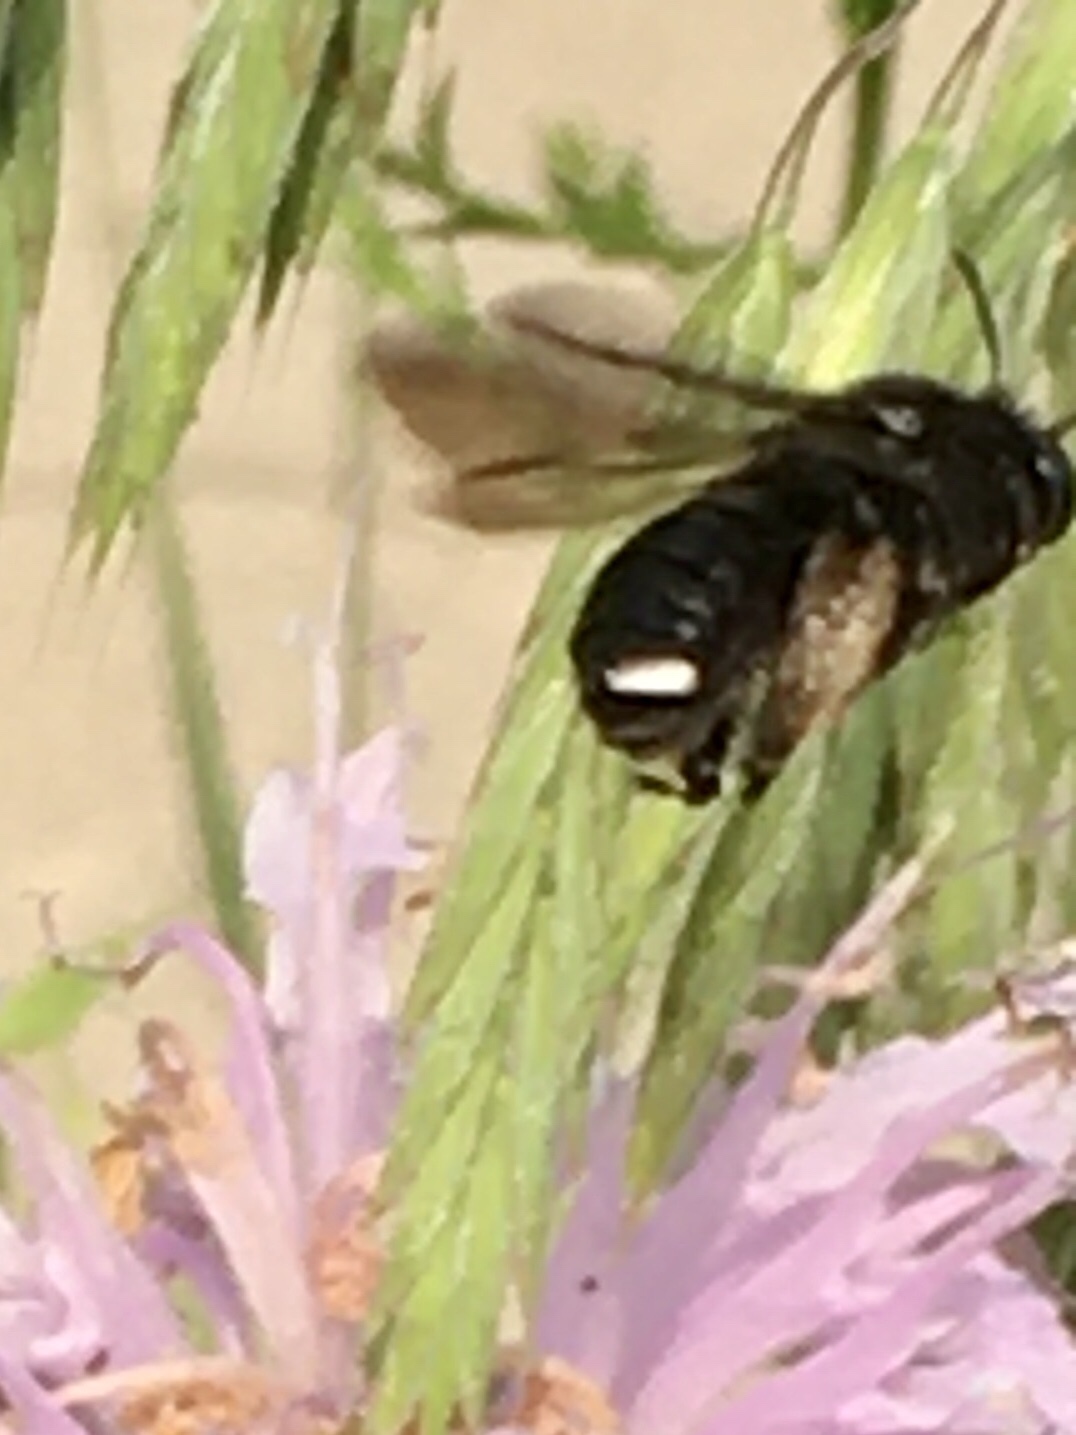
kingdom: Animalia
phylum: Arthropoda
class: Insecta
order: Hymenoptera
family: Apidae
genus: Melissodes
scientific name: Melissodes bimaculatus
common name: Two-spotted long-horned bee
